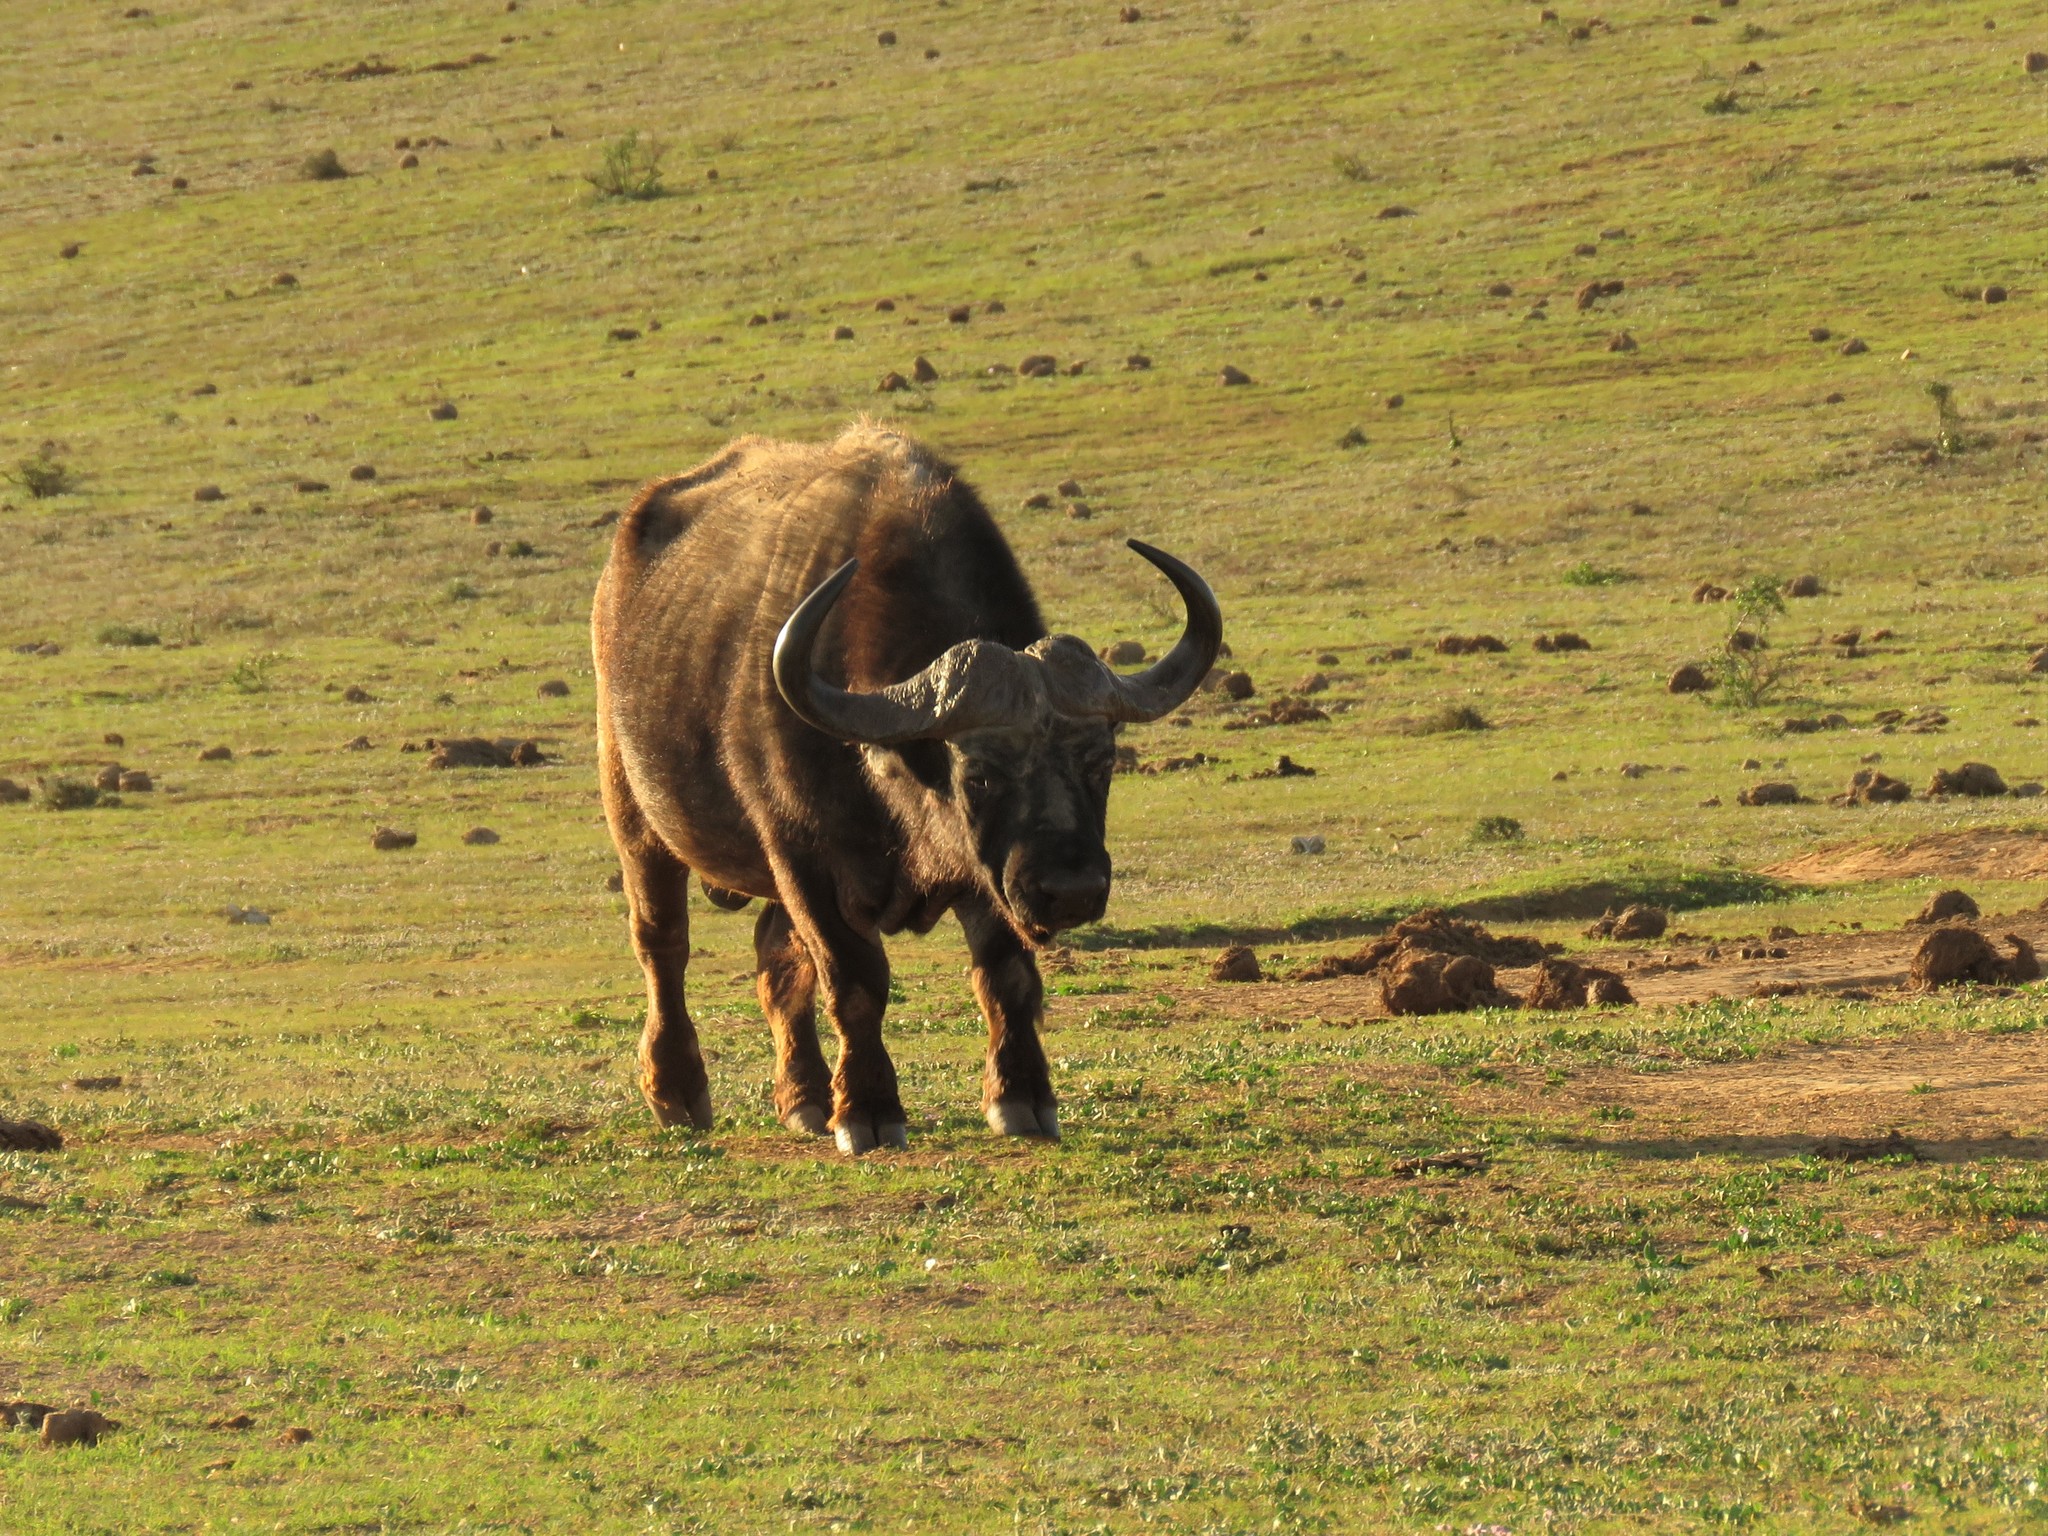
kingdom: Animalia
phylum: Chordata
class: Mammalia
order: Artiodactyla
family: Bovidae
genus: Syncerus
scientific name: Syncerus caffer
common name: African buffalo
